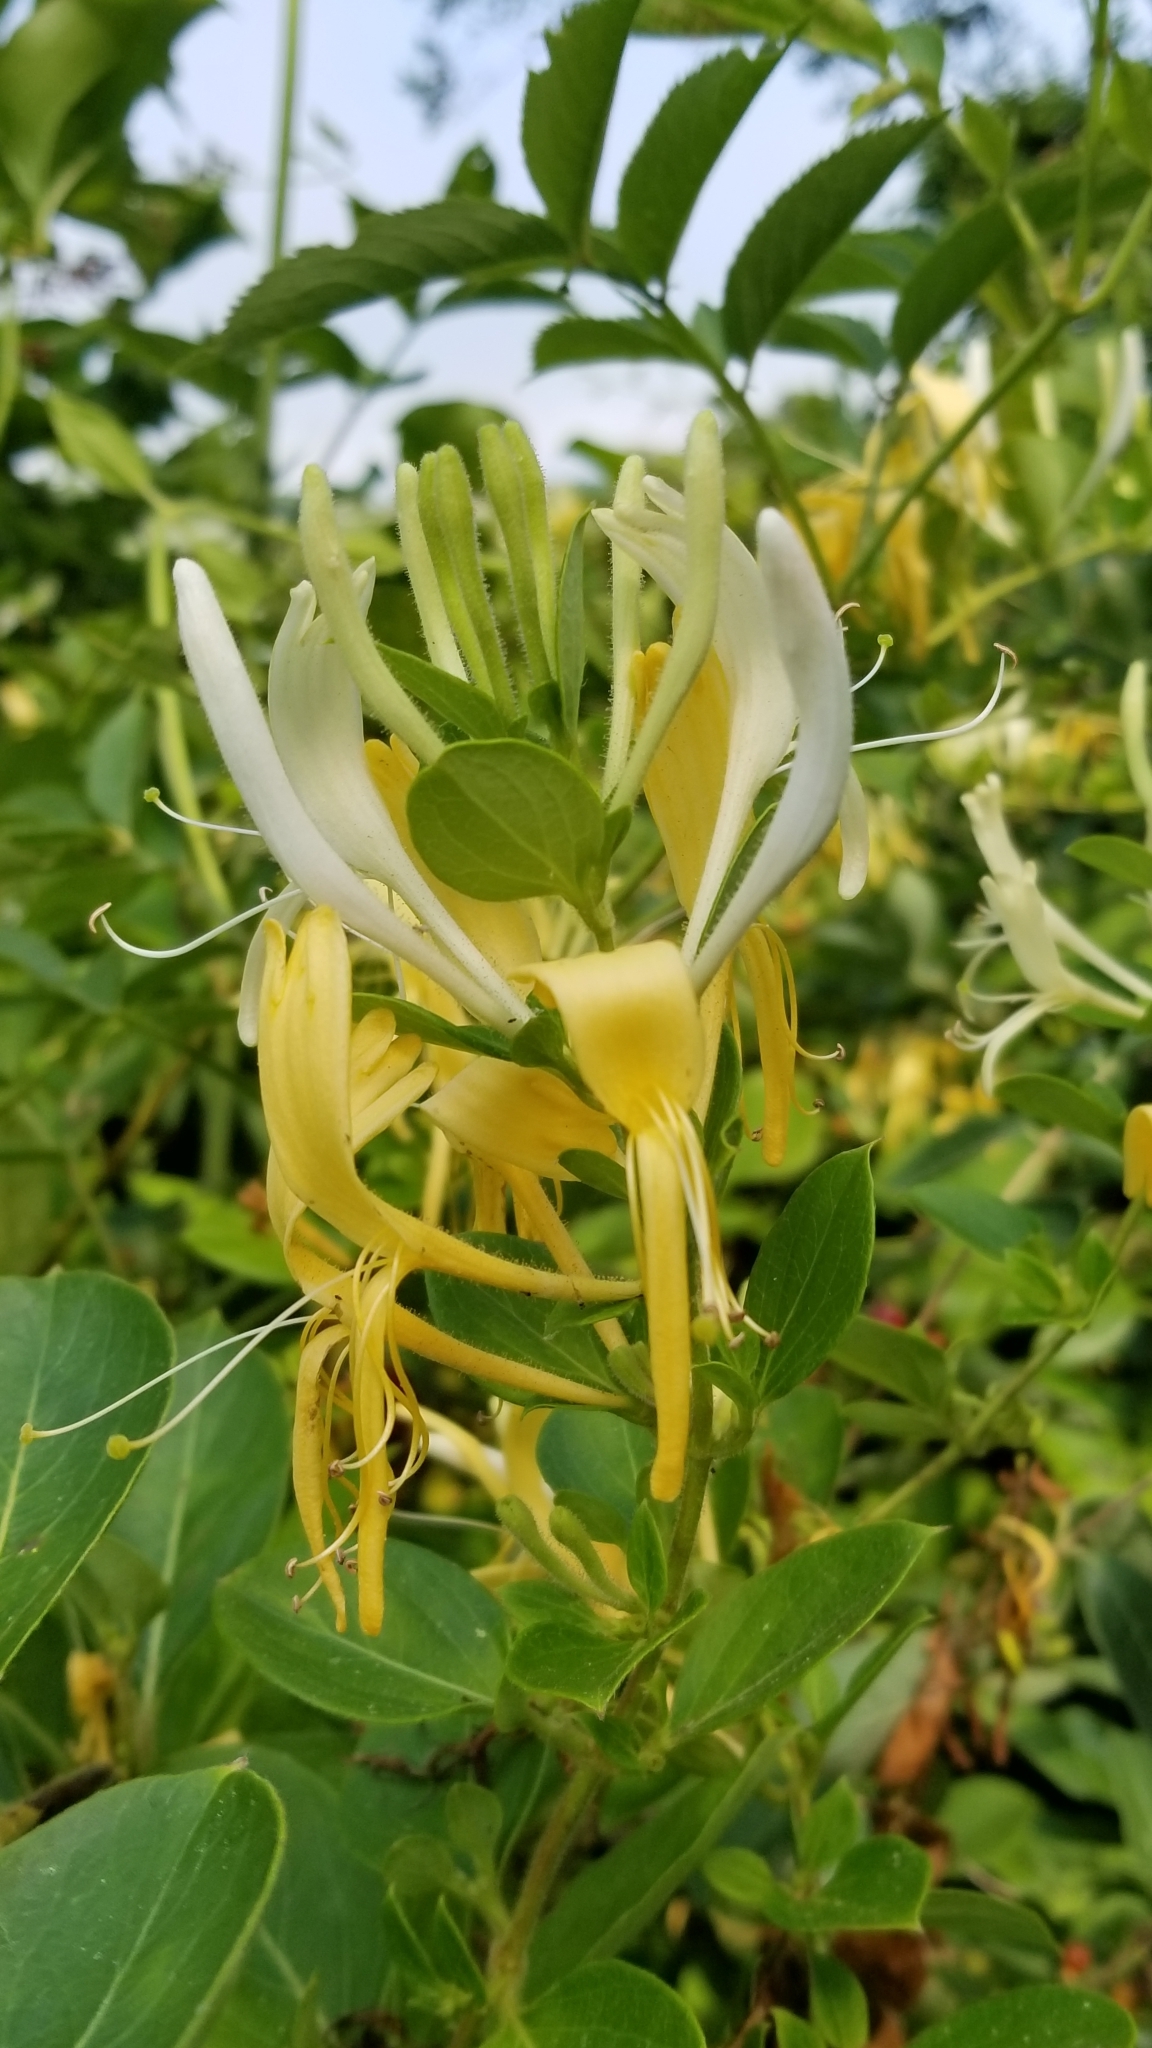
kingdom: Plantae
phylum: Tracheophyta
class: Magnoliopsida
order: Dipsacales
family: Caprifoliaceae
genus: Lonicera
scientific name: Lonicera japonica
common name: Japanese honeysuckle
